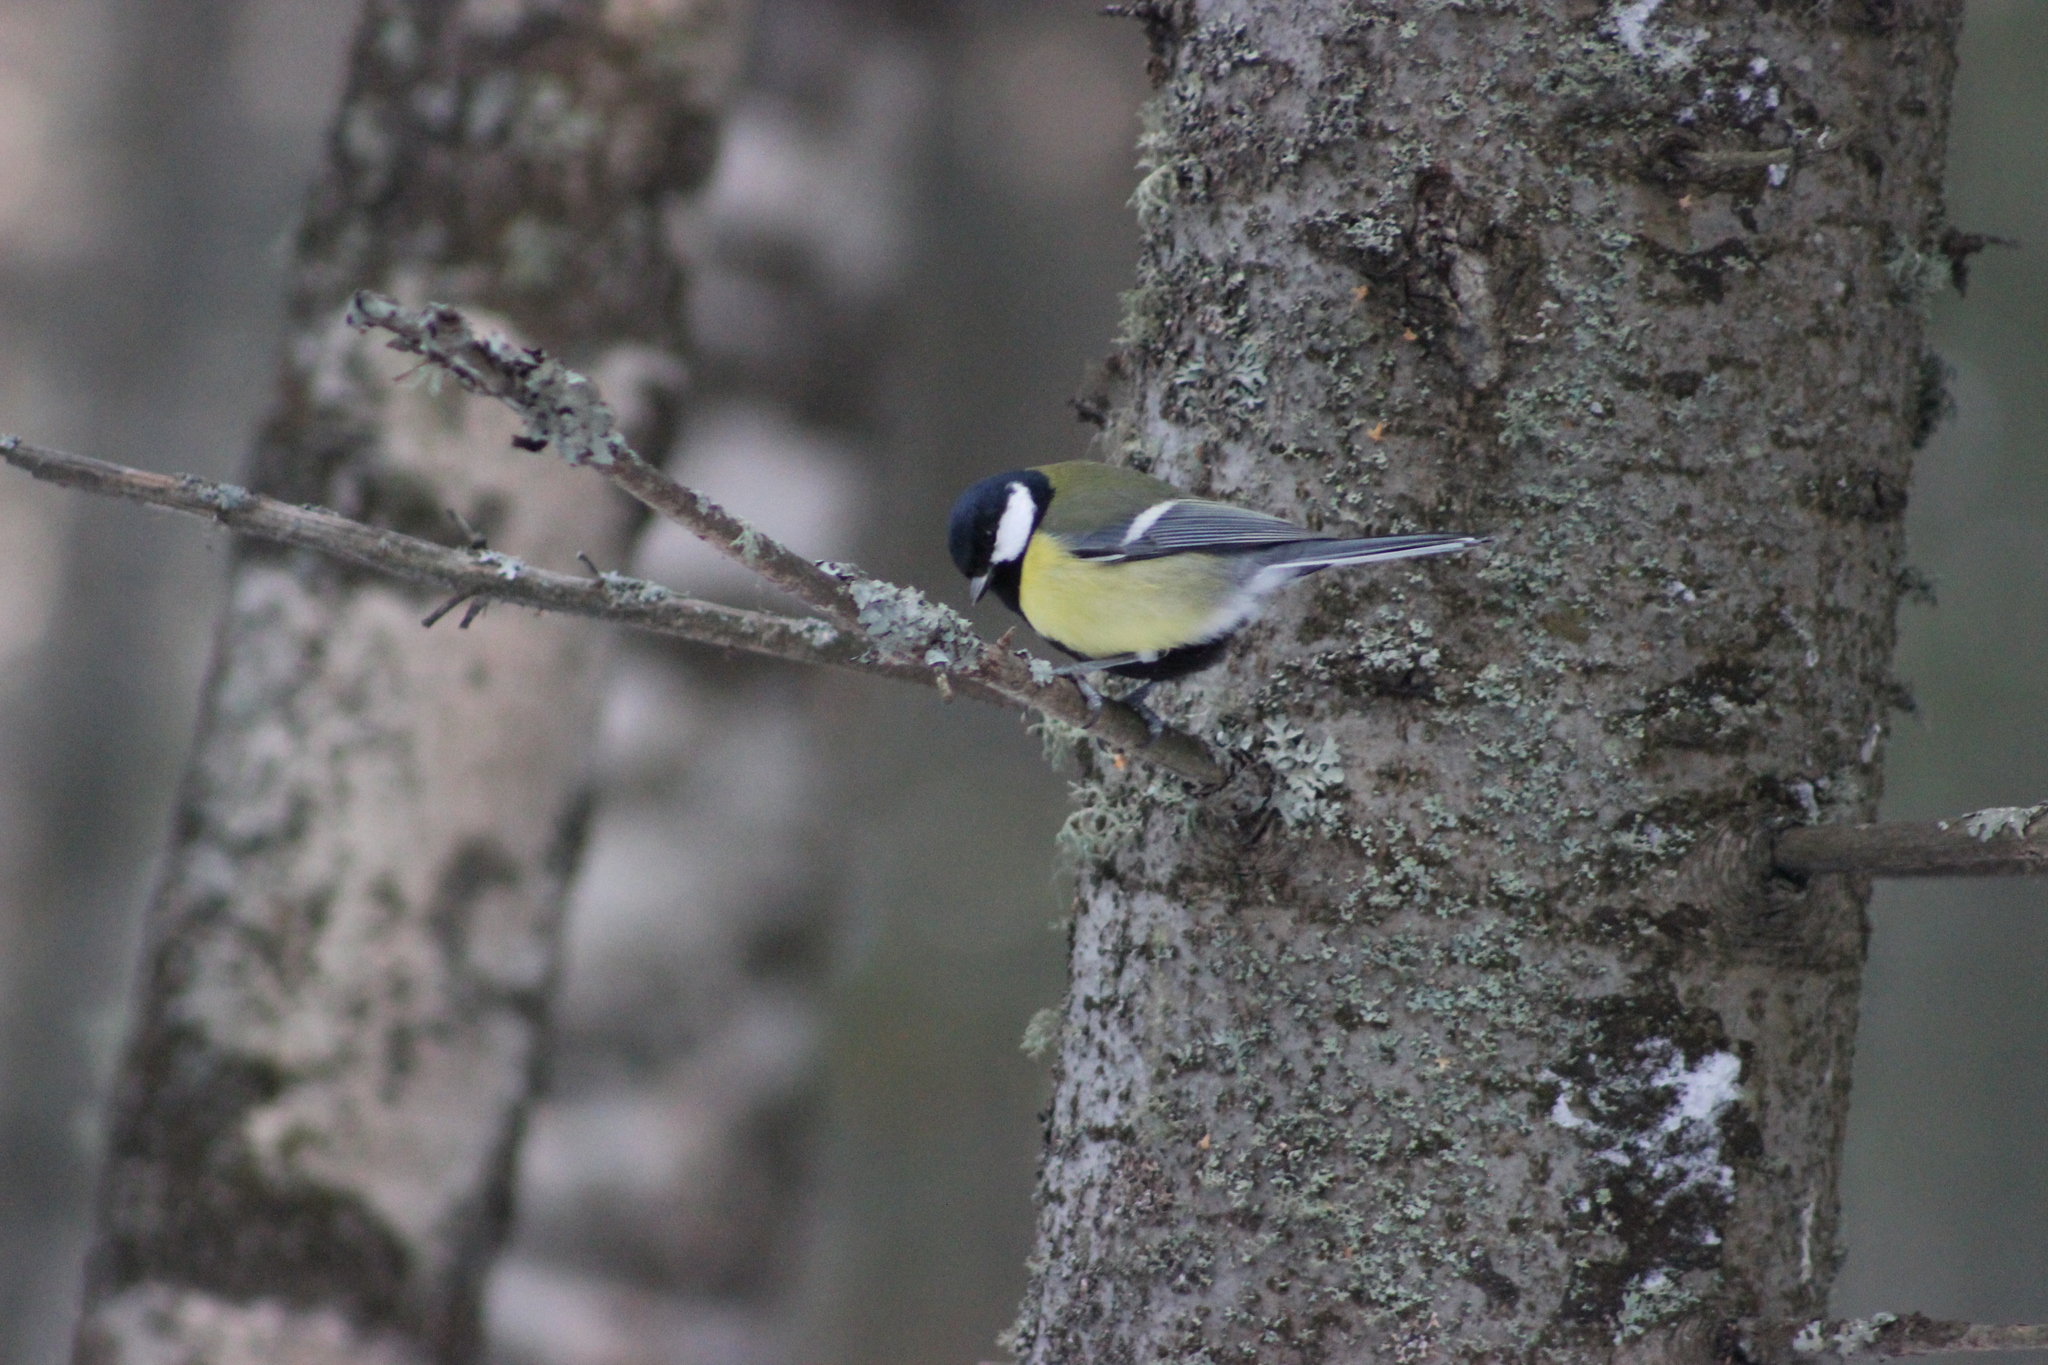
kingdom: Animalia
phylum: Chordata
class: Aves
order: Passeriformes
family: Paridae
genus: Parus
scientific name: Parus major
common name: Great tit
